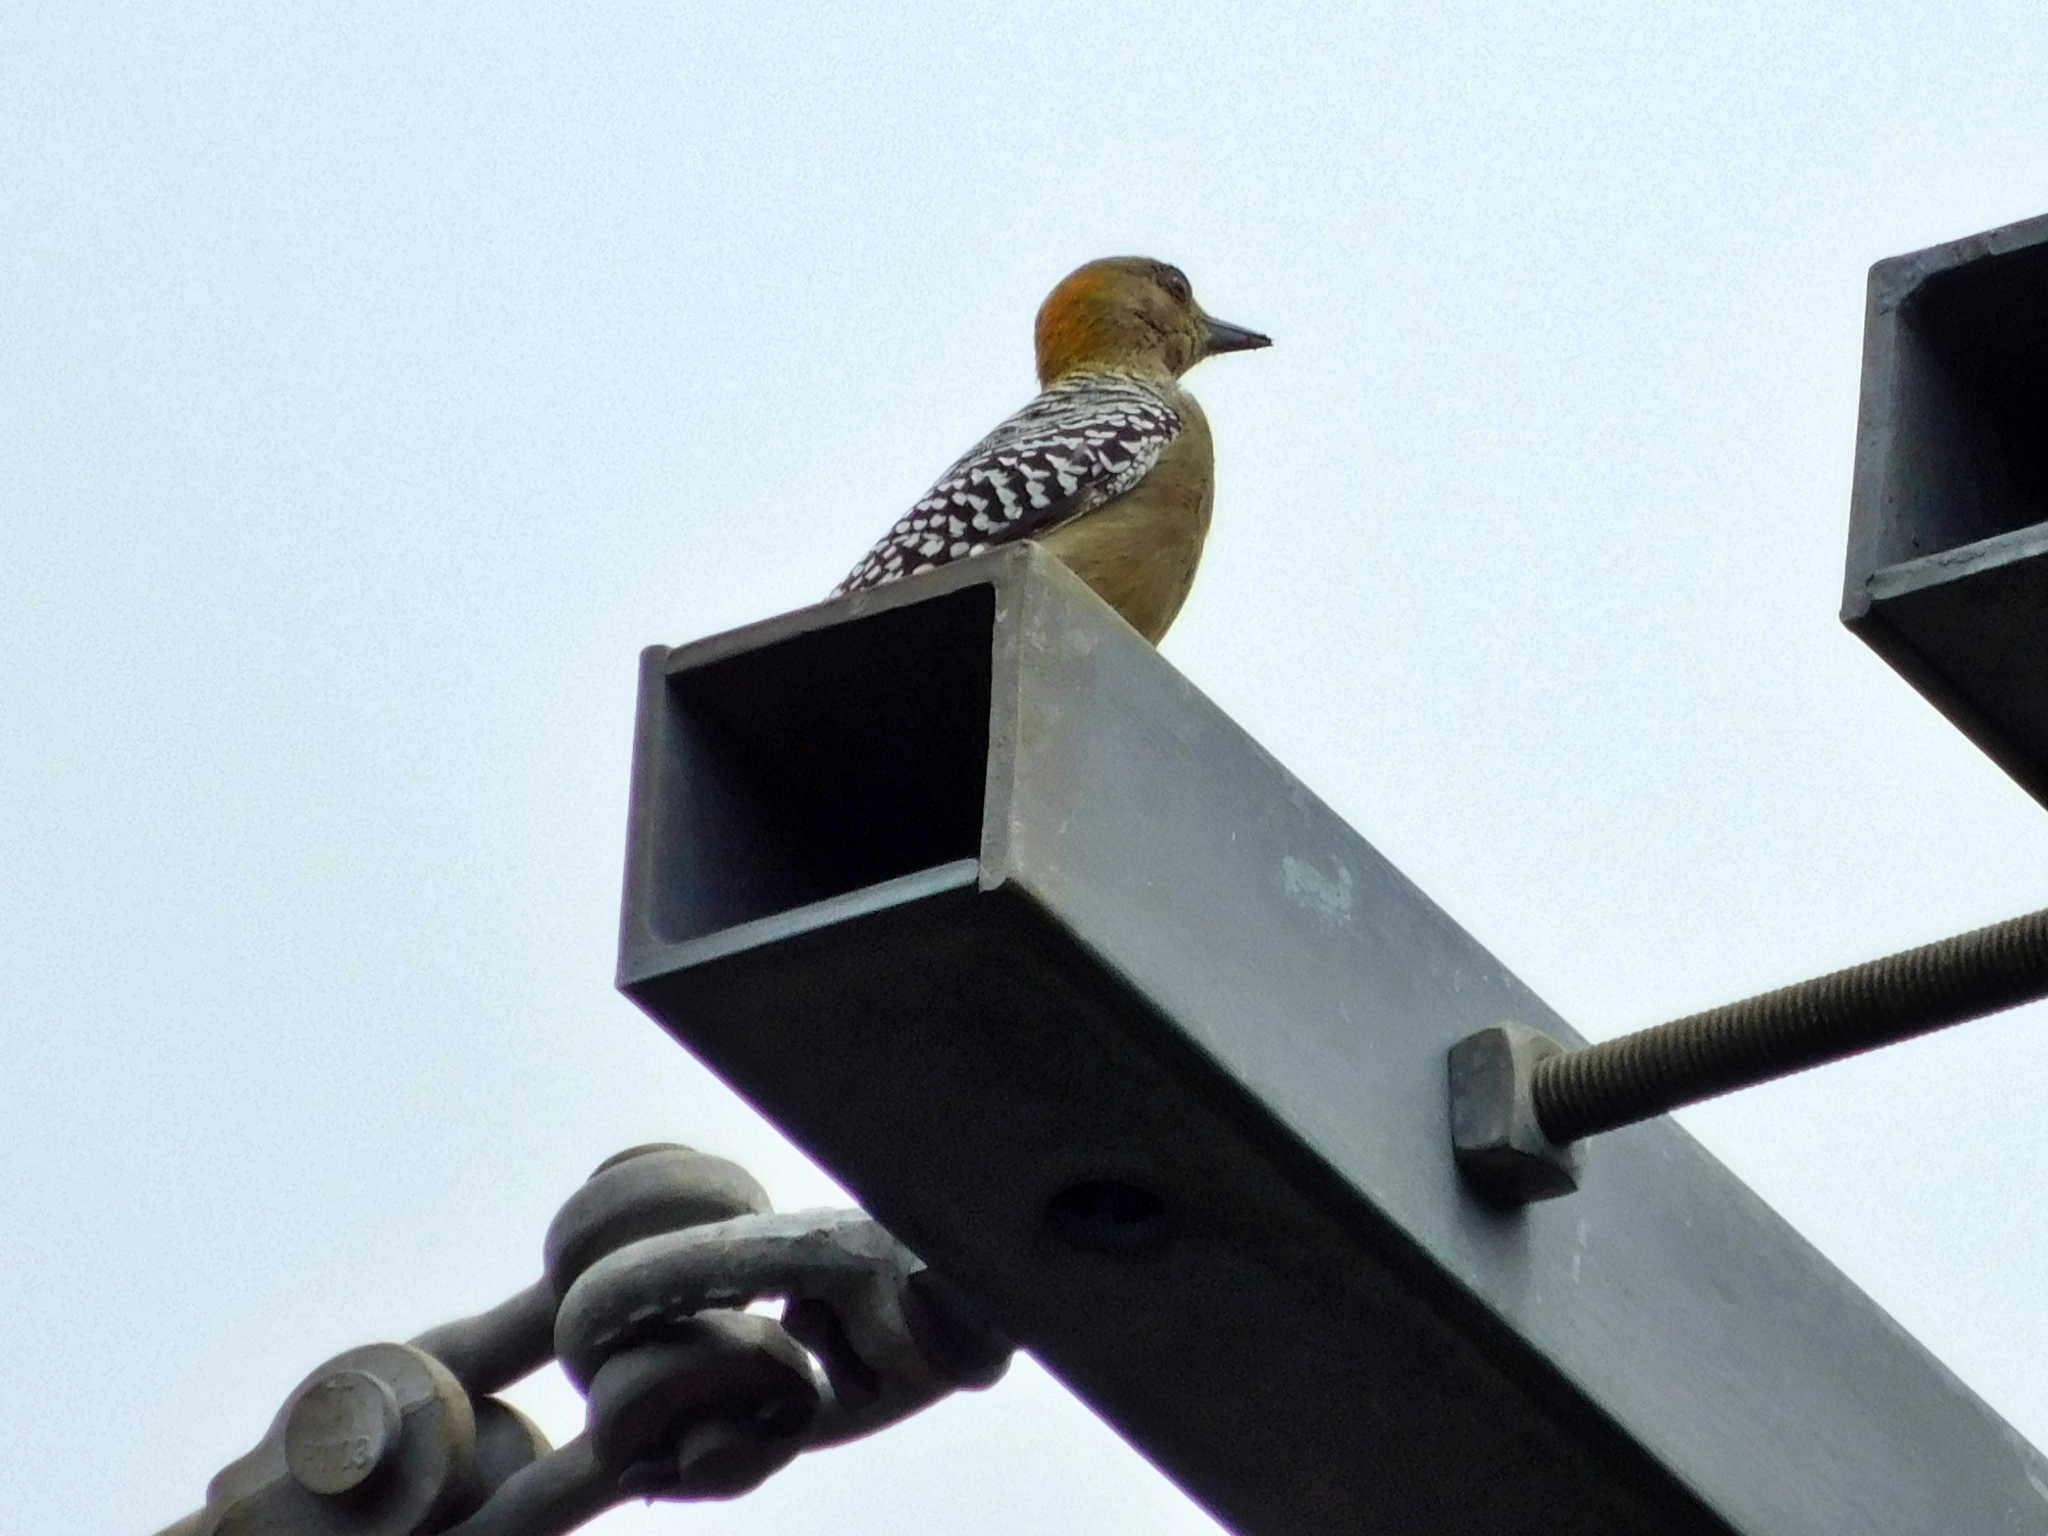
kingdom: Animalia
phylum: Chordata
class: Aves
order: Piciformes
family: Picidae
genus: Melanerpes
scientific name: Melanerpes hoffmannii
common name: Hoffmann's woodpecker
